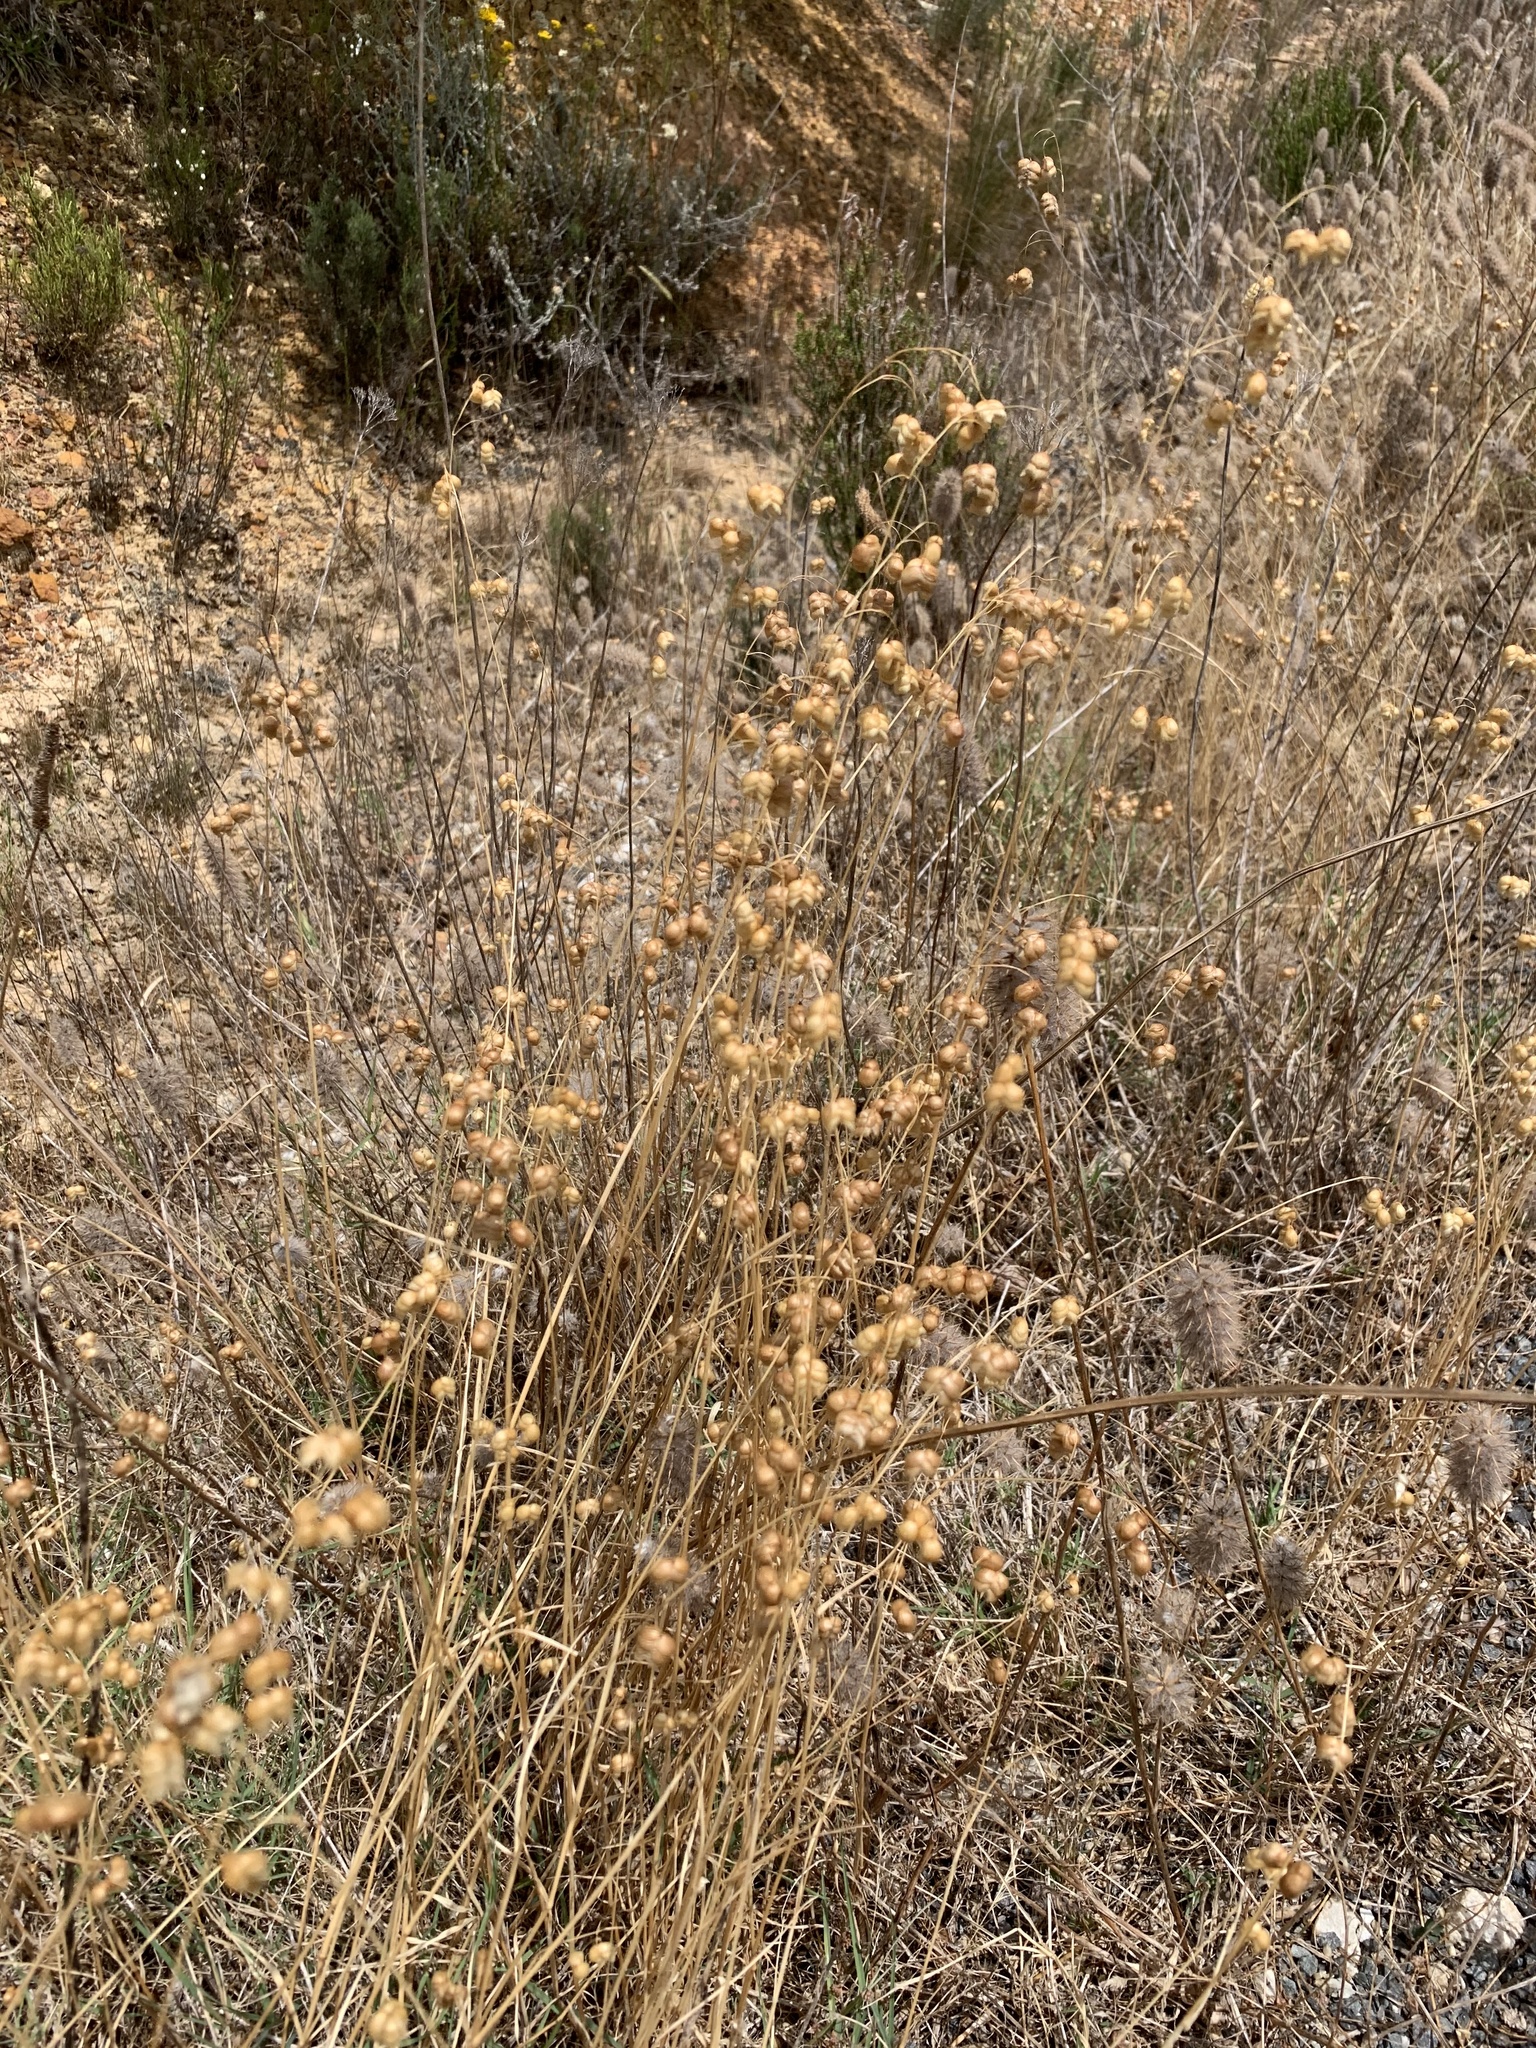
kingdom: Plantae
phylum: Tracheophyta
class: Liliopsida
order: Poales
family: Poaceae
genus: Briza
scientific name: Briza maxima
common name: Big quakinggrass
